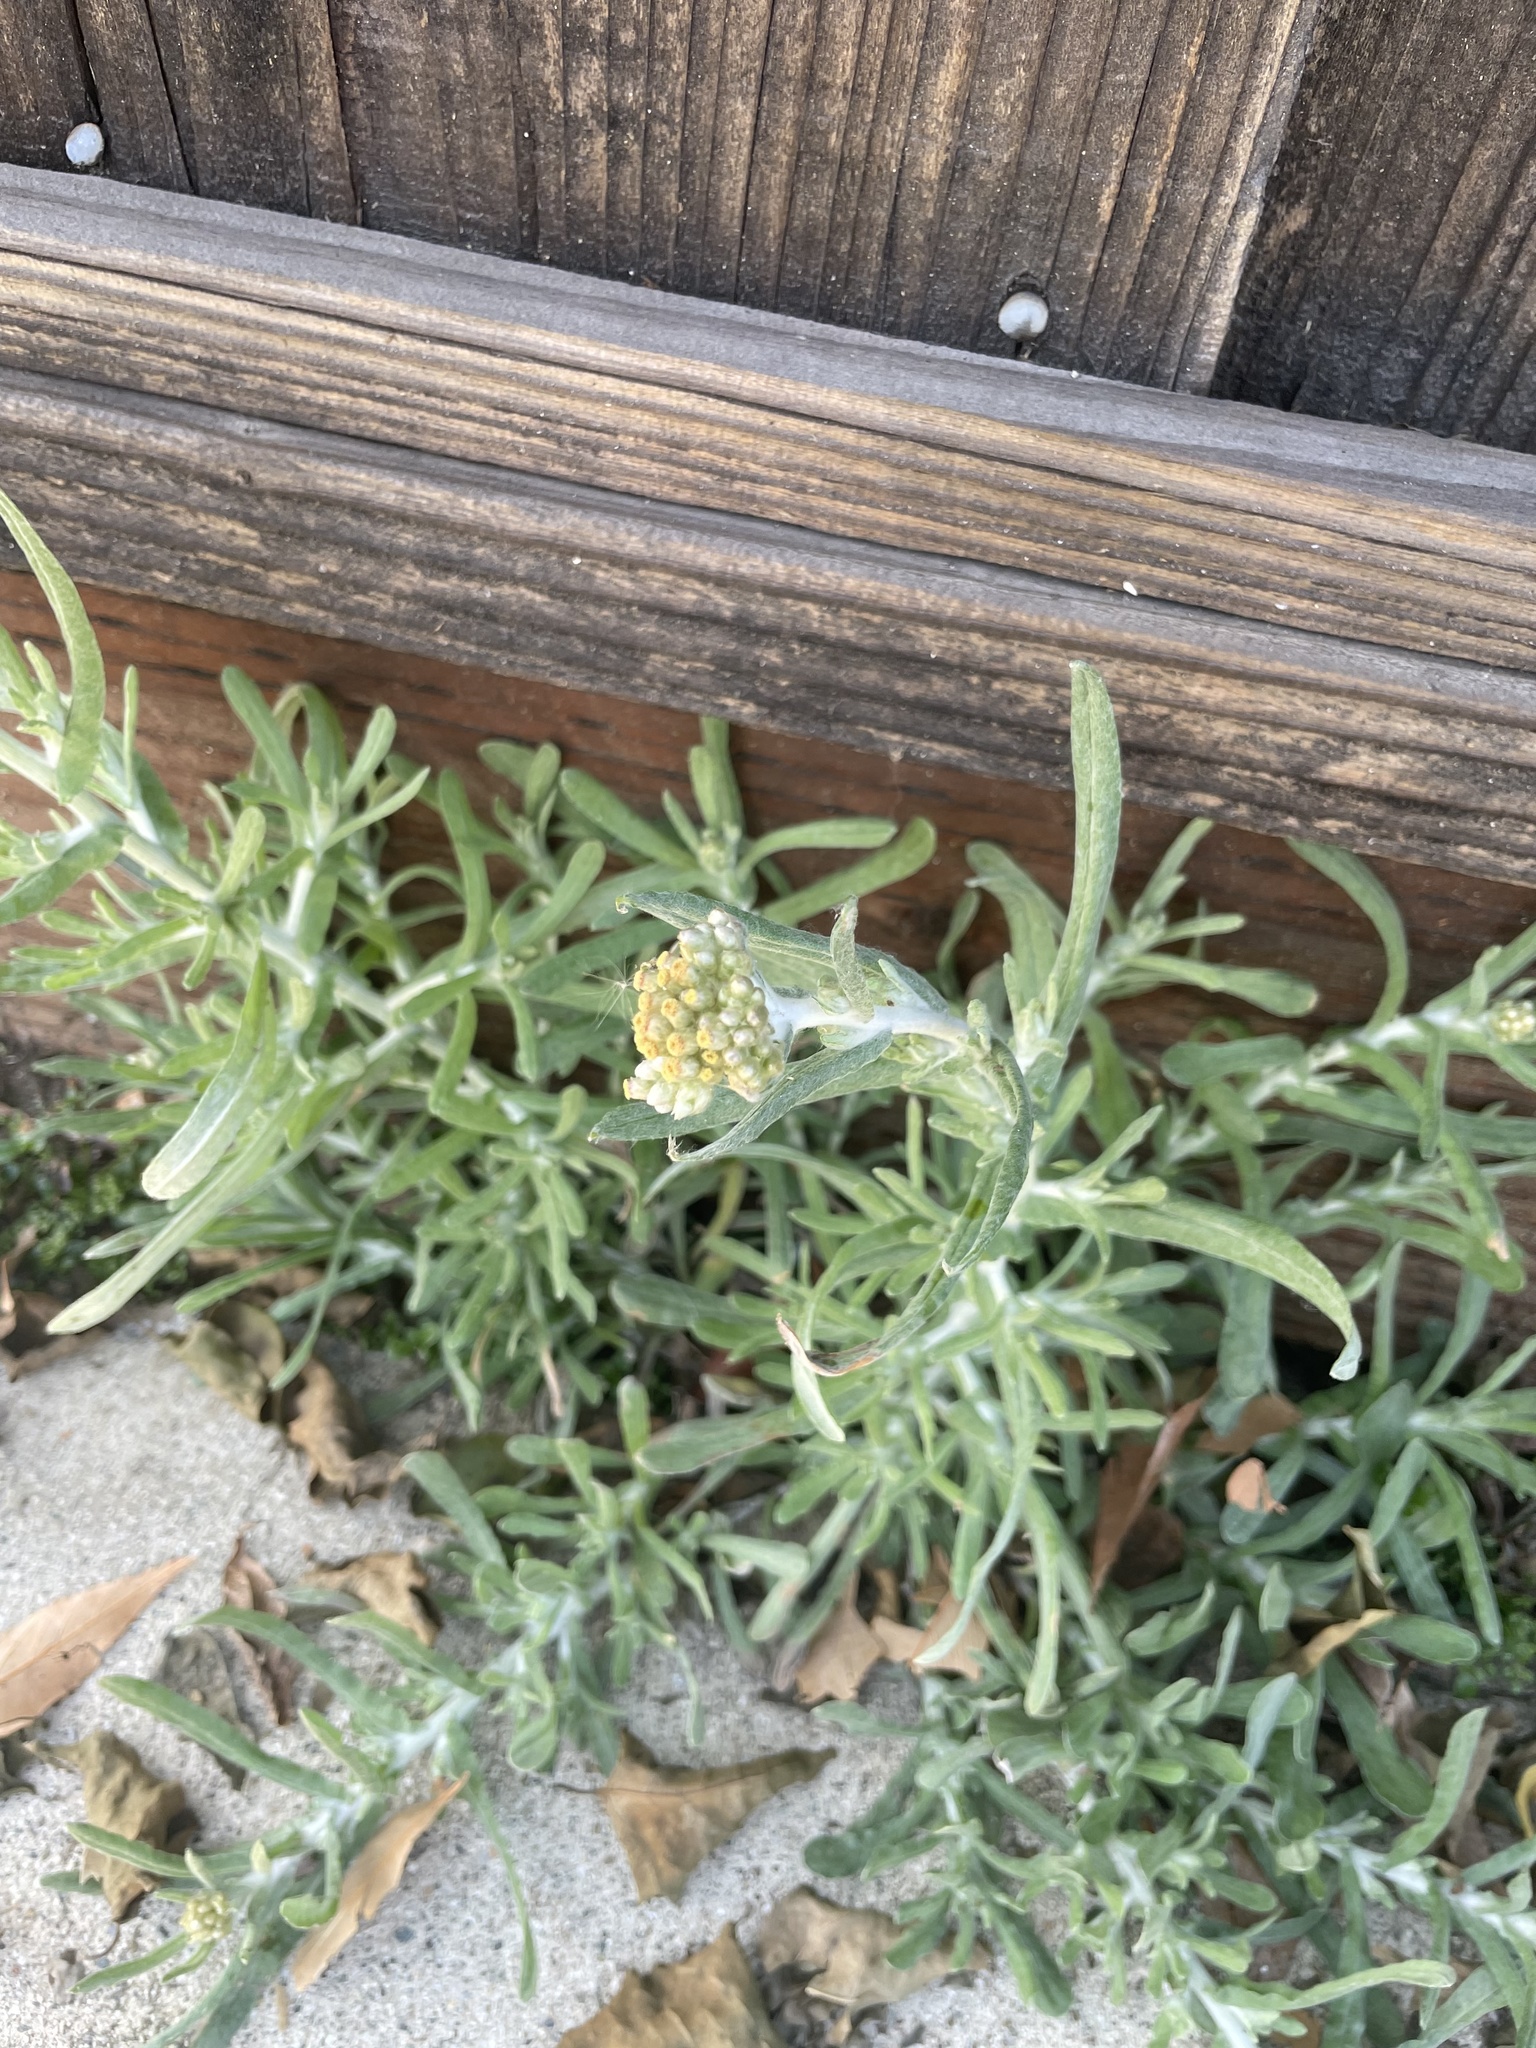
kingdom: Plantae
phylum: Tracheophyta
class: Magnoliopsida
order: Asterales
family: Asteraceae
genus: Helichrysum
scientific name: Helichrysum luteoalbum
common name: Daisy
